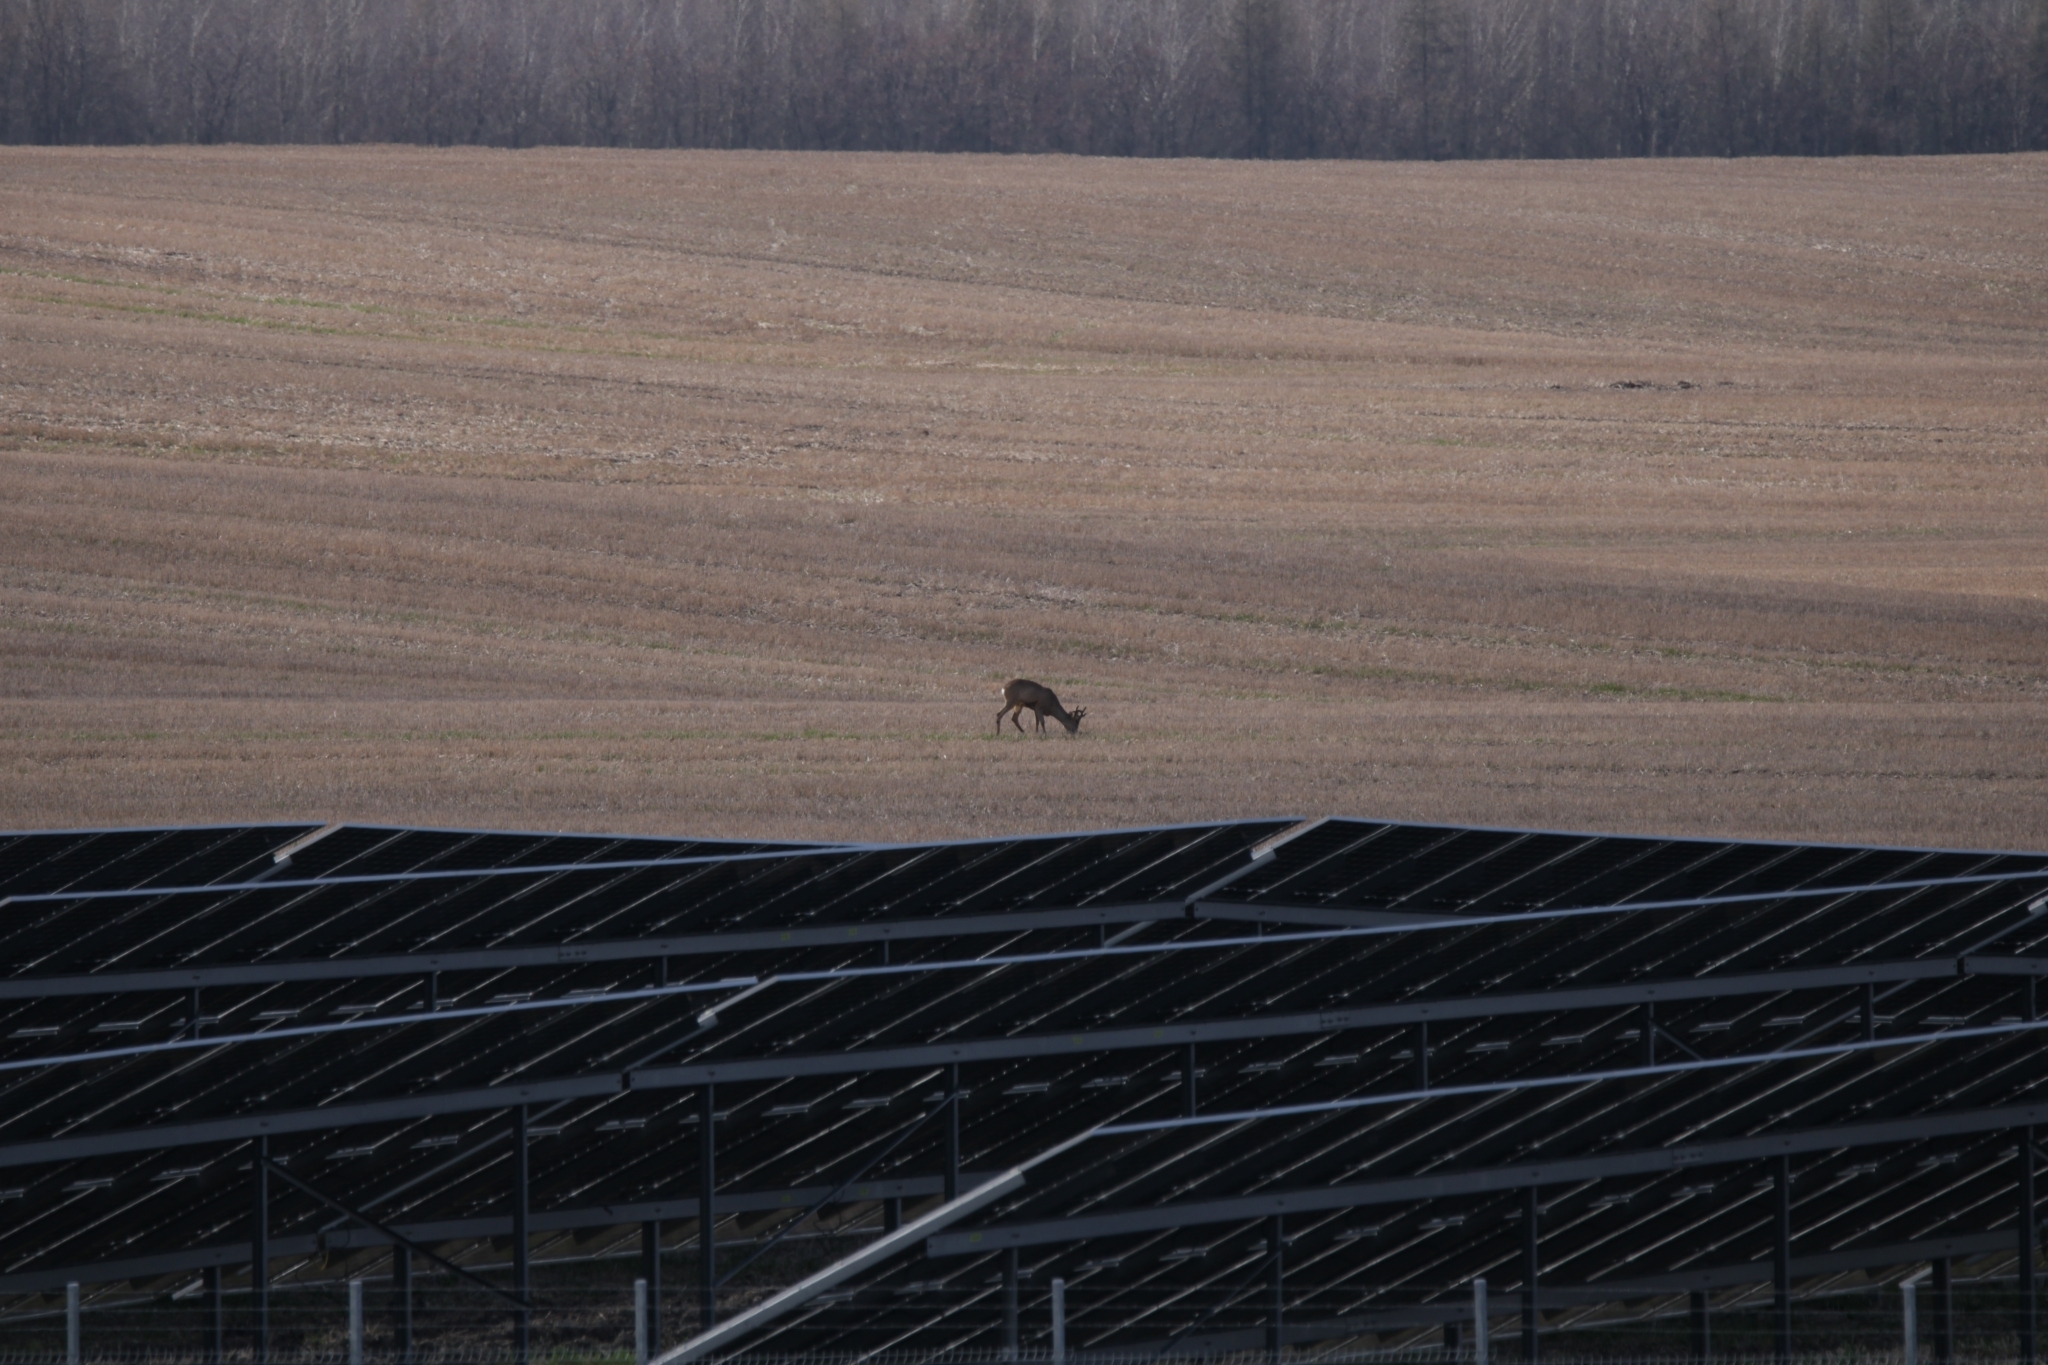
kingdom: Animalia
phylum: Chordata
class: Mammalia
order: Artiodactyla
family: Cervidae
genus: Capreolus
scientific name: Capreolus capreolus
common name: Western roe deer
